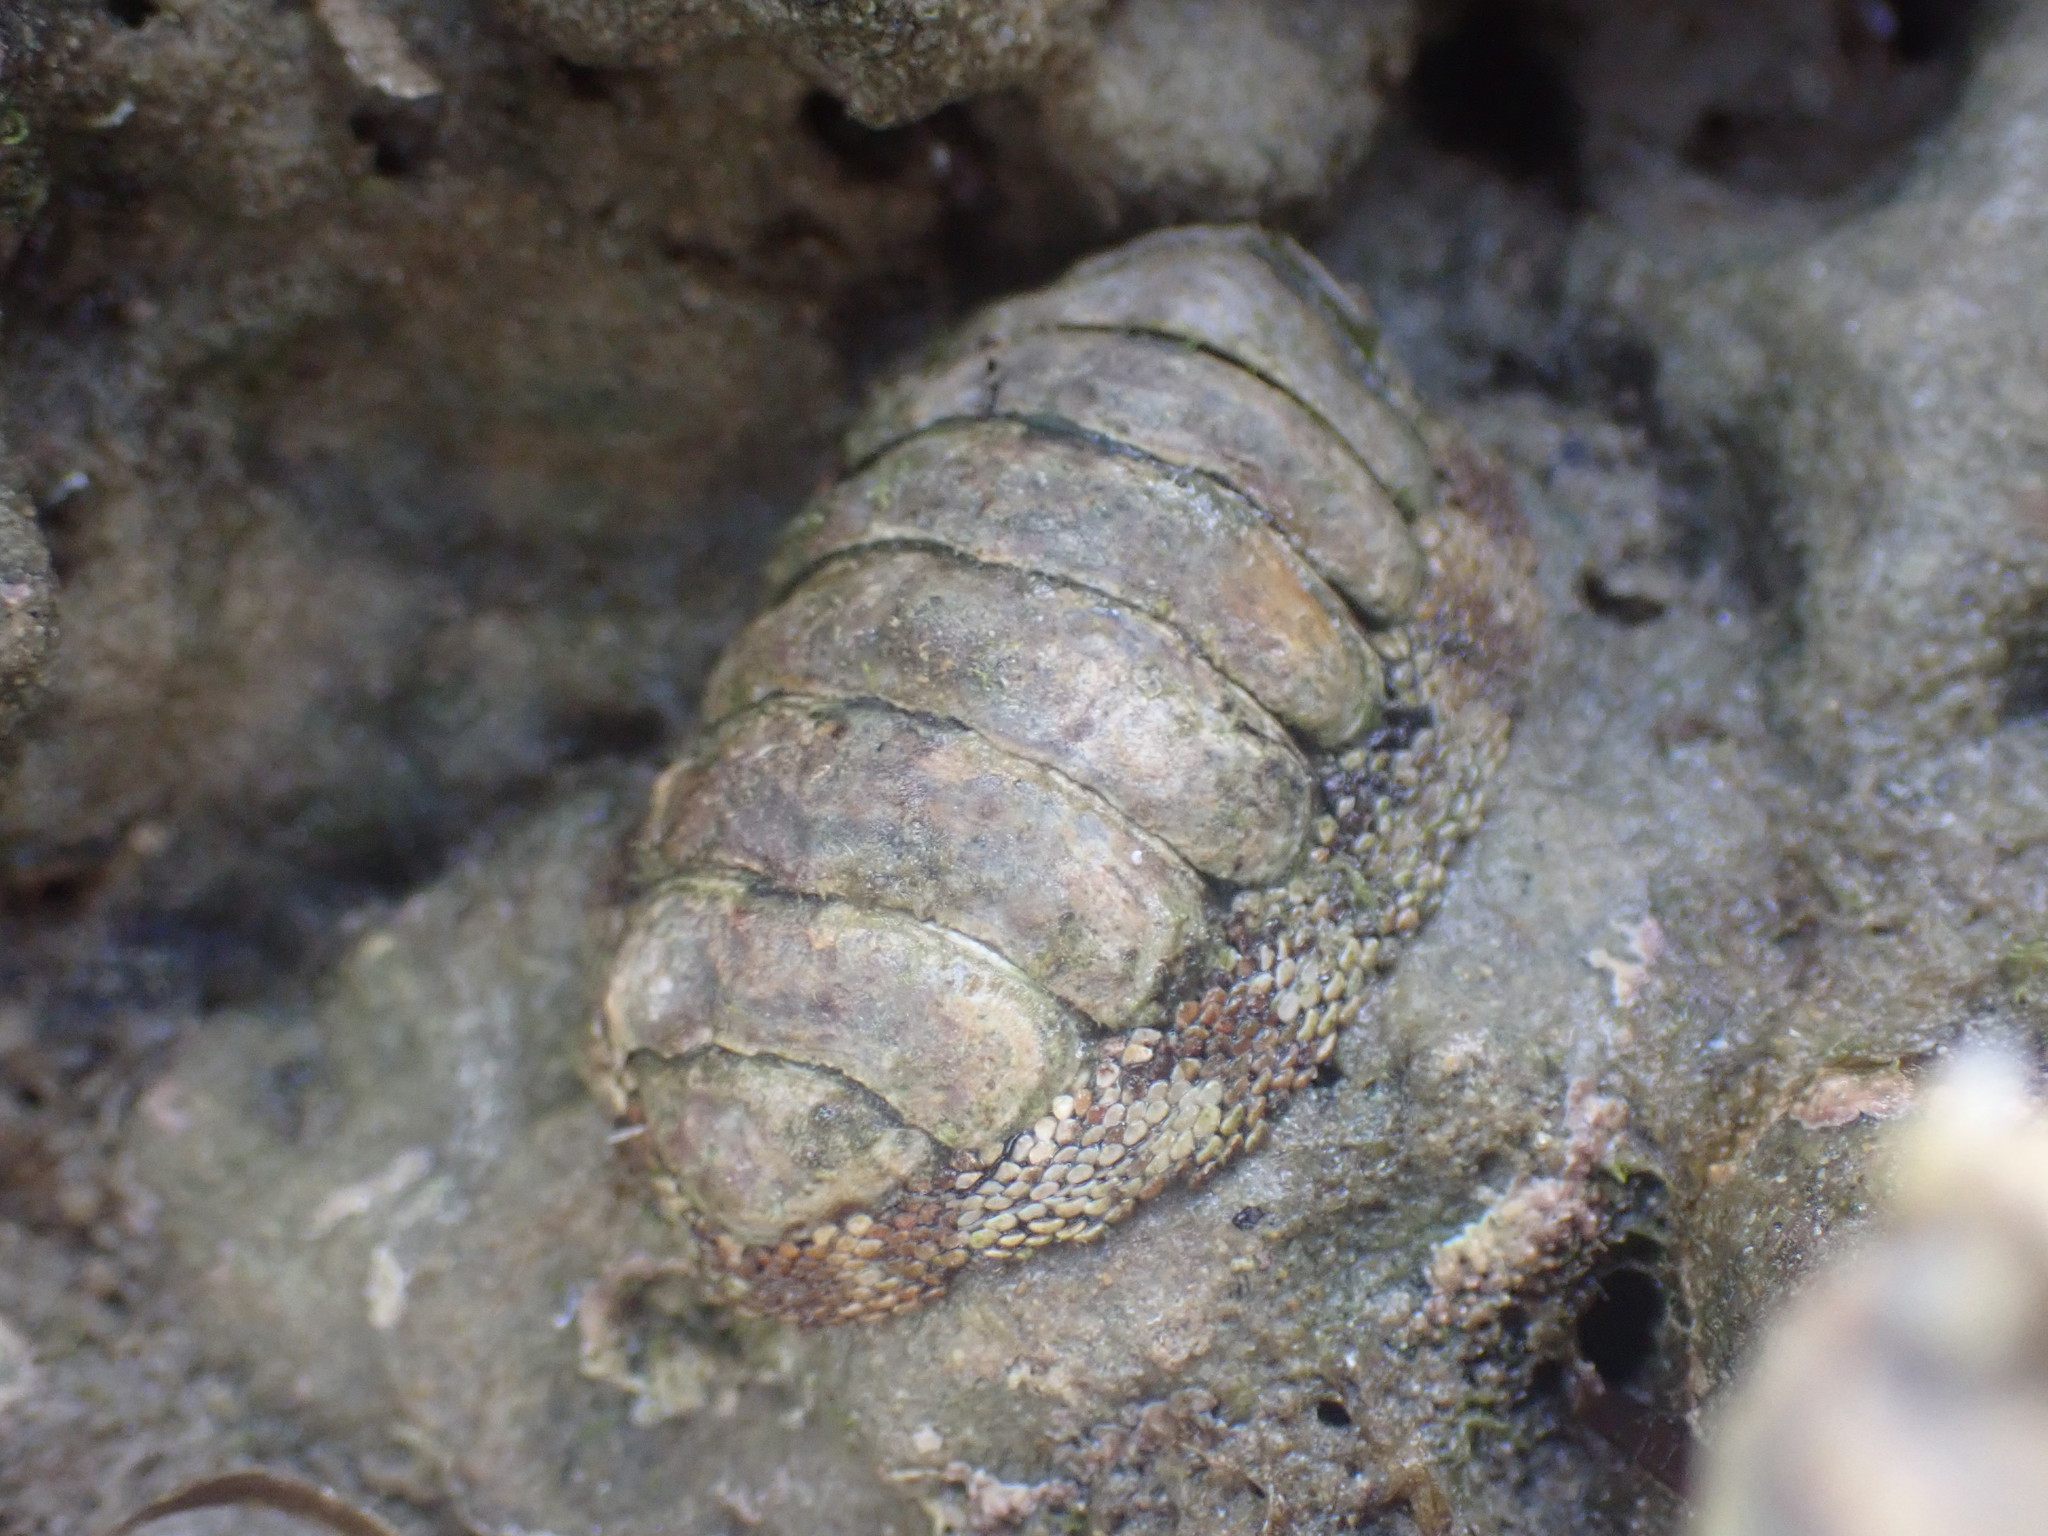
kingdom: Animalia
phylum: Mollusca
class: Polyplacophora
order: Chitonida
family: Chitonidae
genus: Sypharochiton
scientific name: Sypharochiton pelliserpentis
